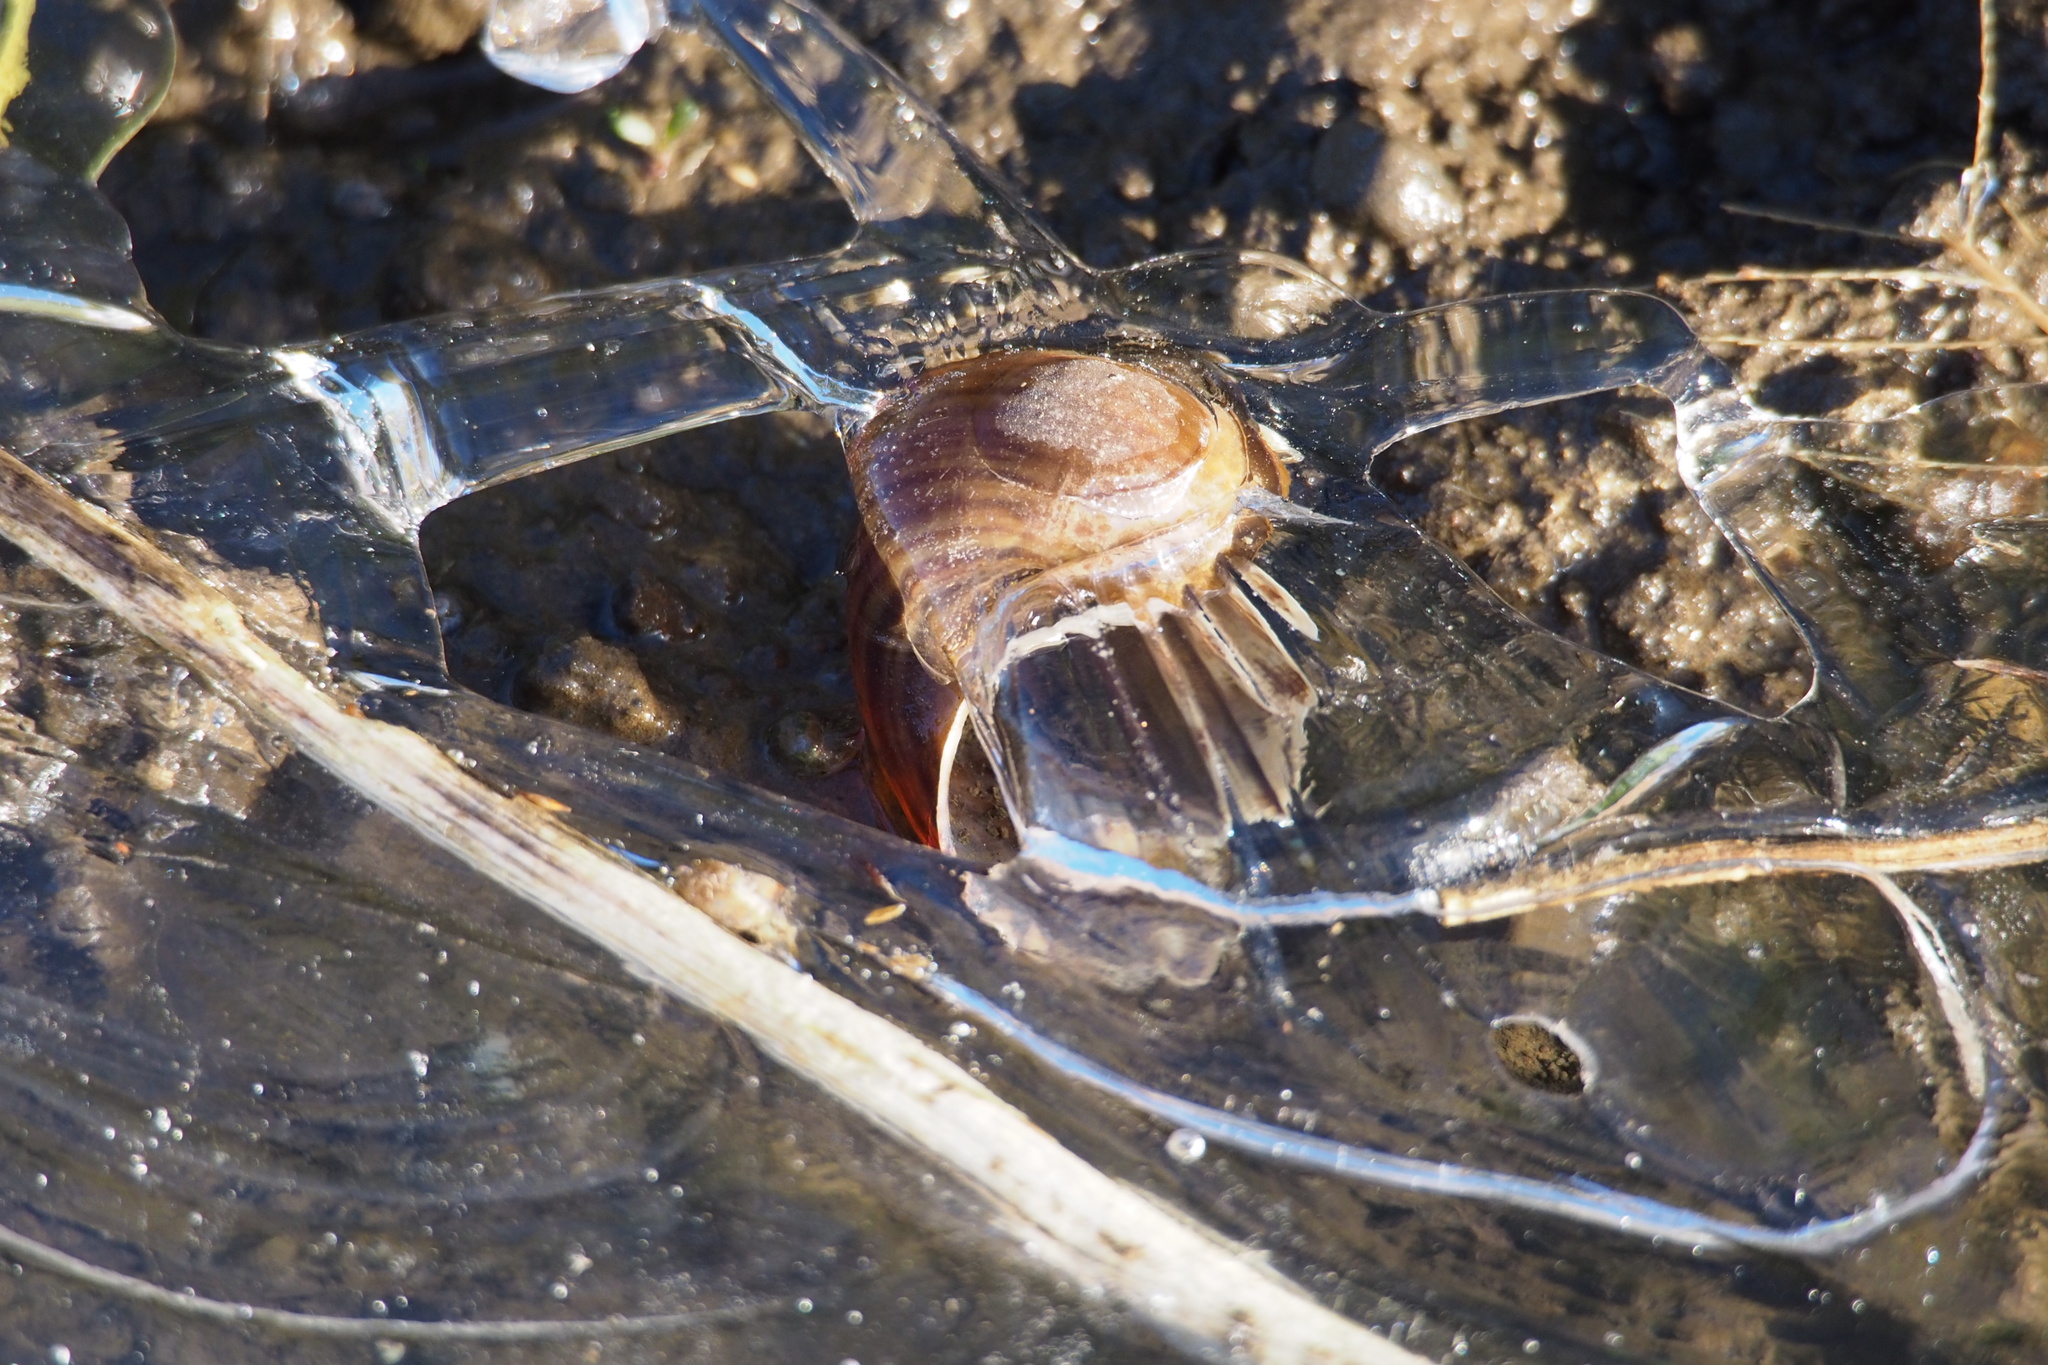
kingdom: Animalia
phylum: Mollusca
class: Gastropoda
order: Architaenioglossa
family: Ampullariidae
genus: Pomacea
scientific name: Pomacea canaliculata
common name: Channeled applesnail
